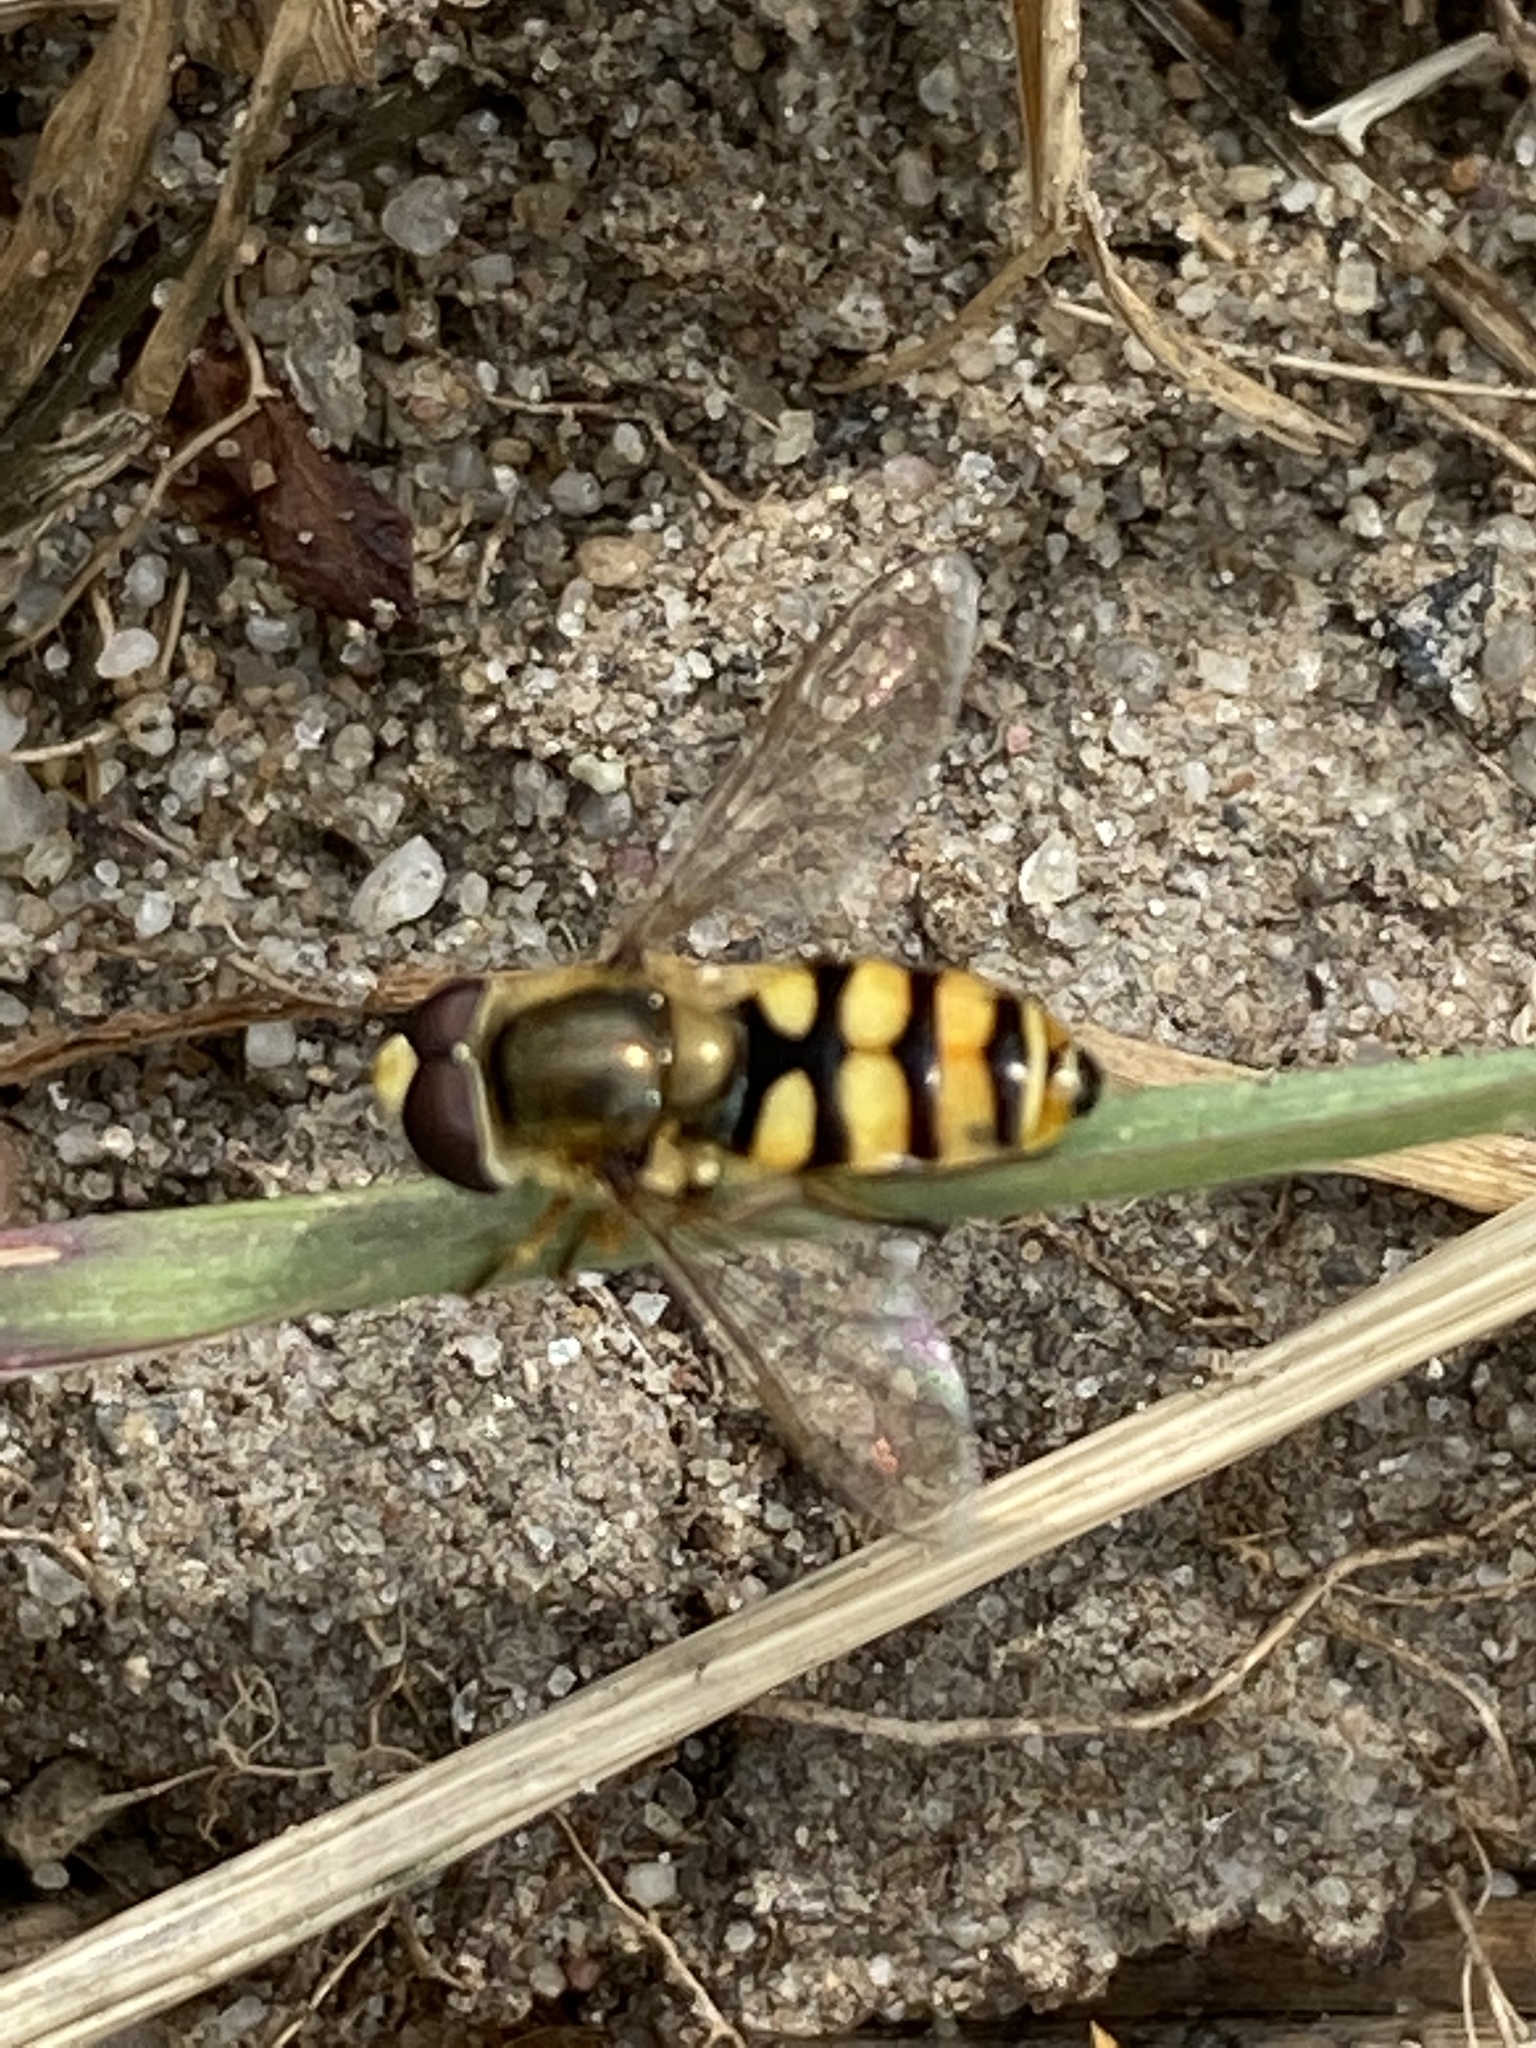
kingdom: Animalia
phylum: Arthropoda
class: Insecta
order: Diptera
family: Syrphidae
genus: Eupeodes
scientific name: Eupeodes corollae
